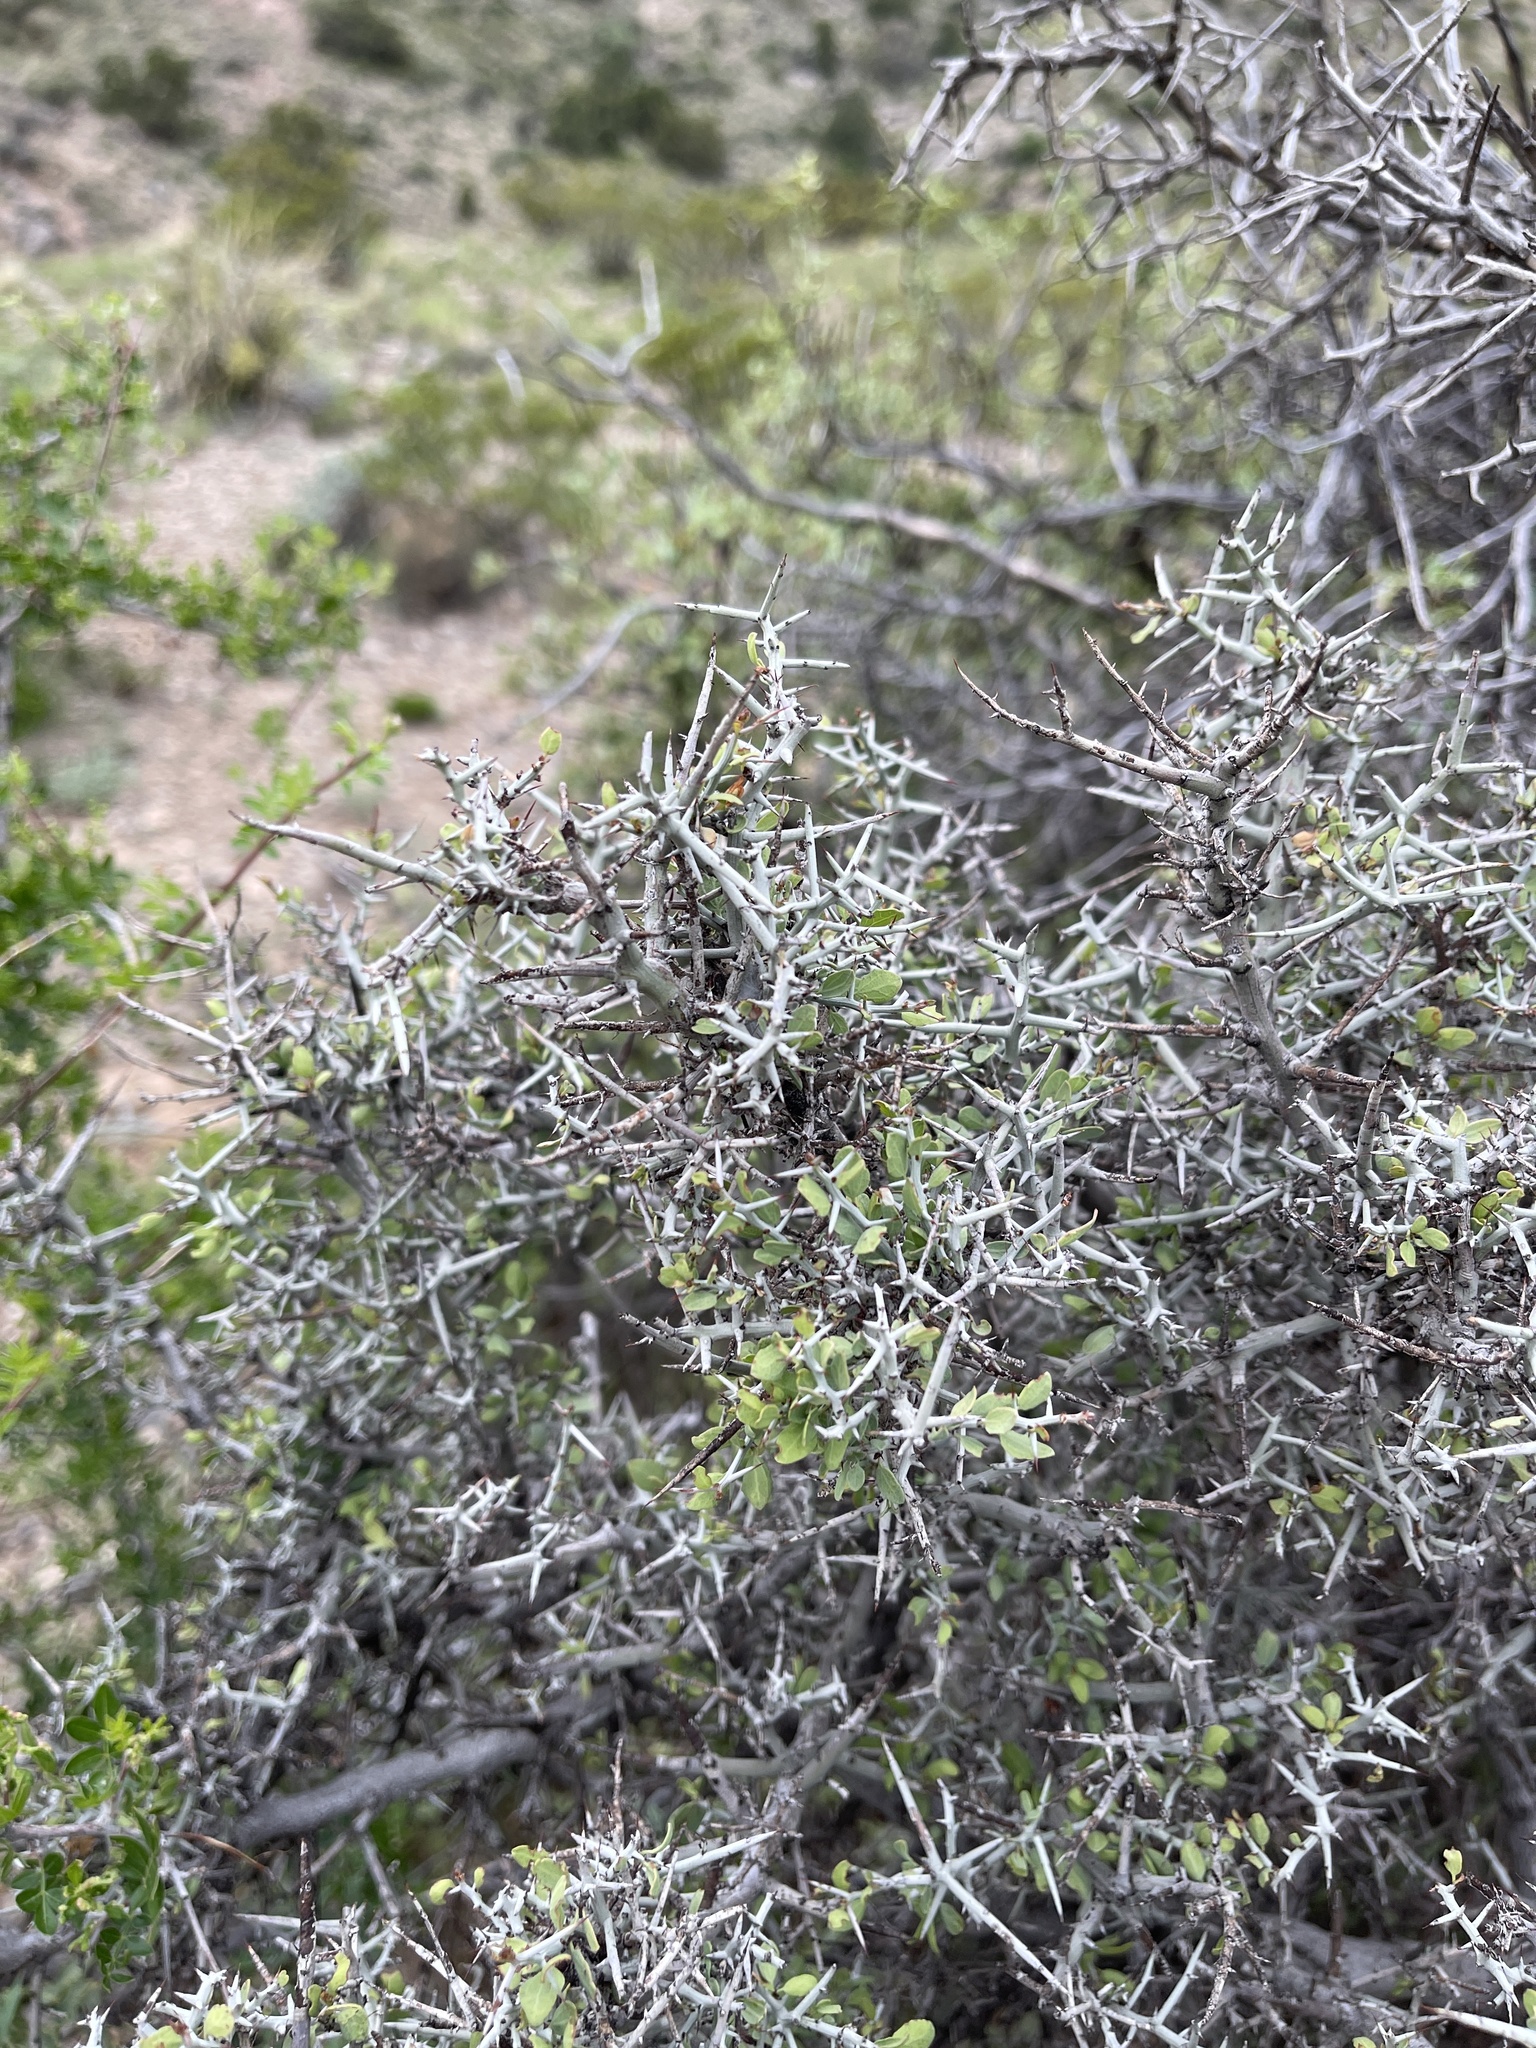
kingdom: Plantae
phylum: Tracheophyta
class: Magnoliopsida
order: Rosales
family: Rhamnaceae
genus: Sarcomphalus
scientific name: Sarcomphalus obtusifolius
